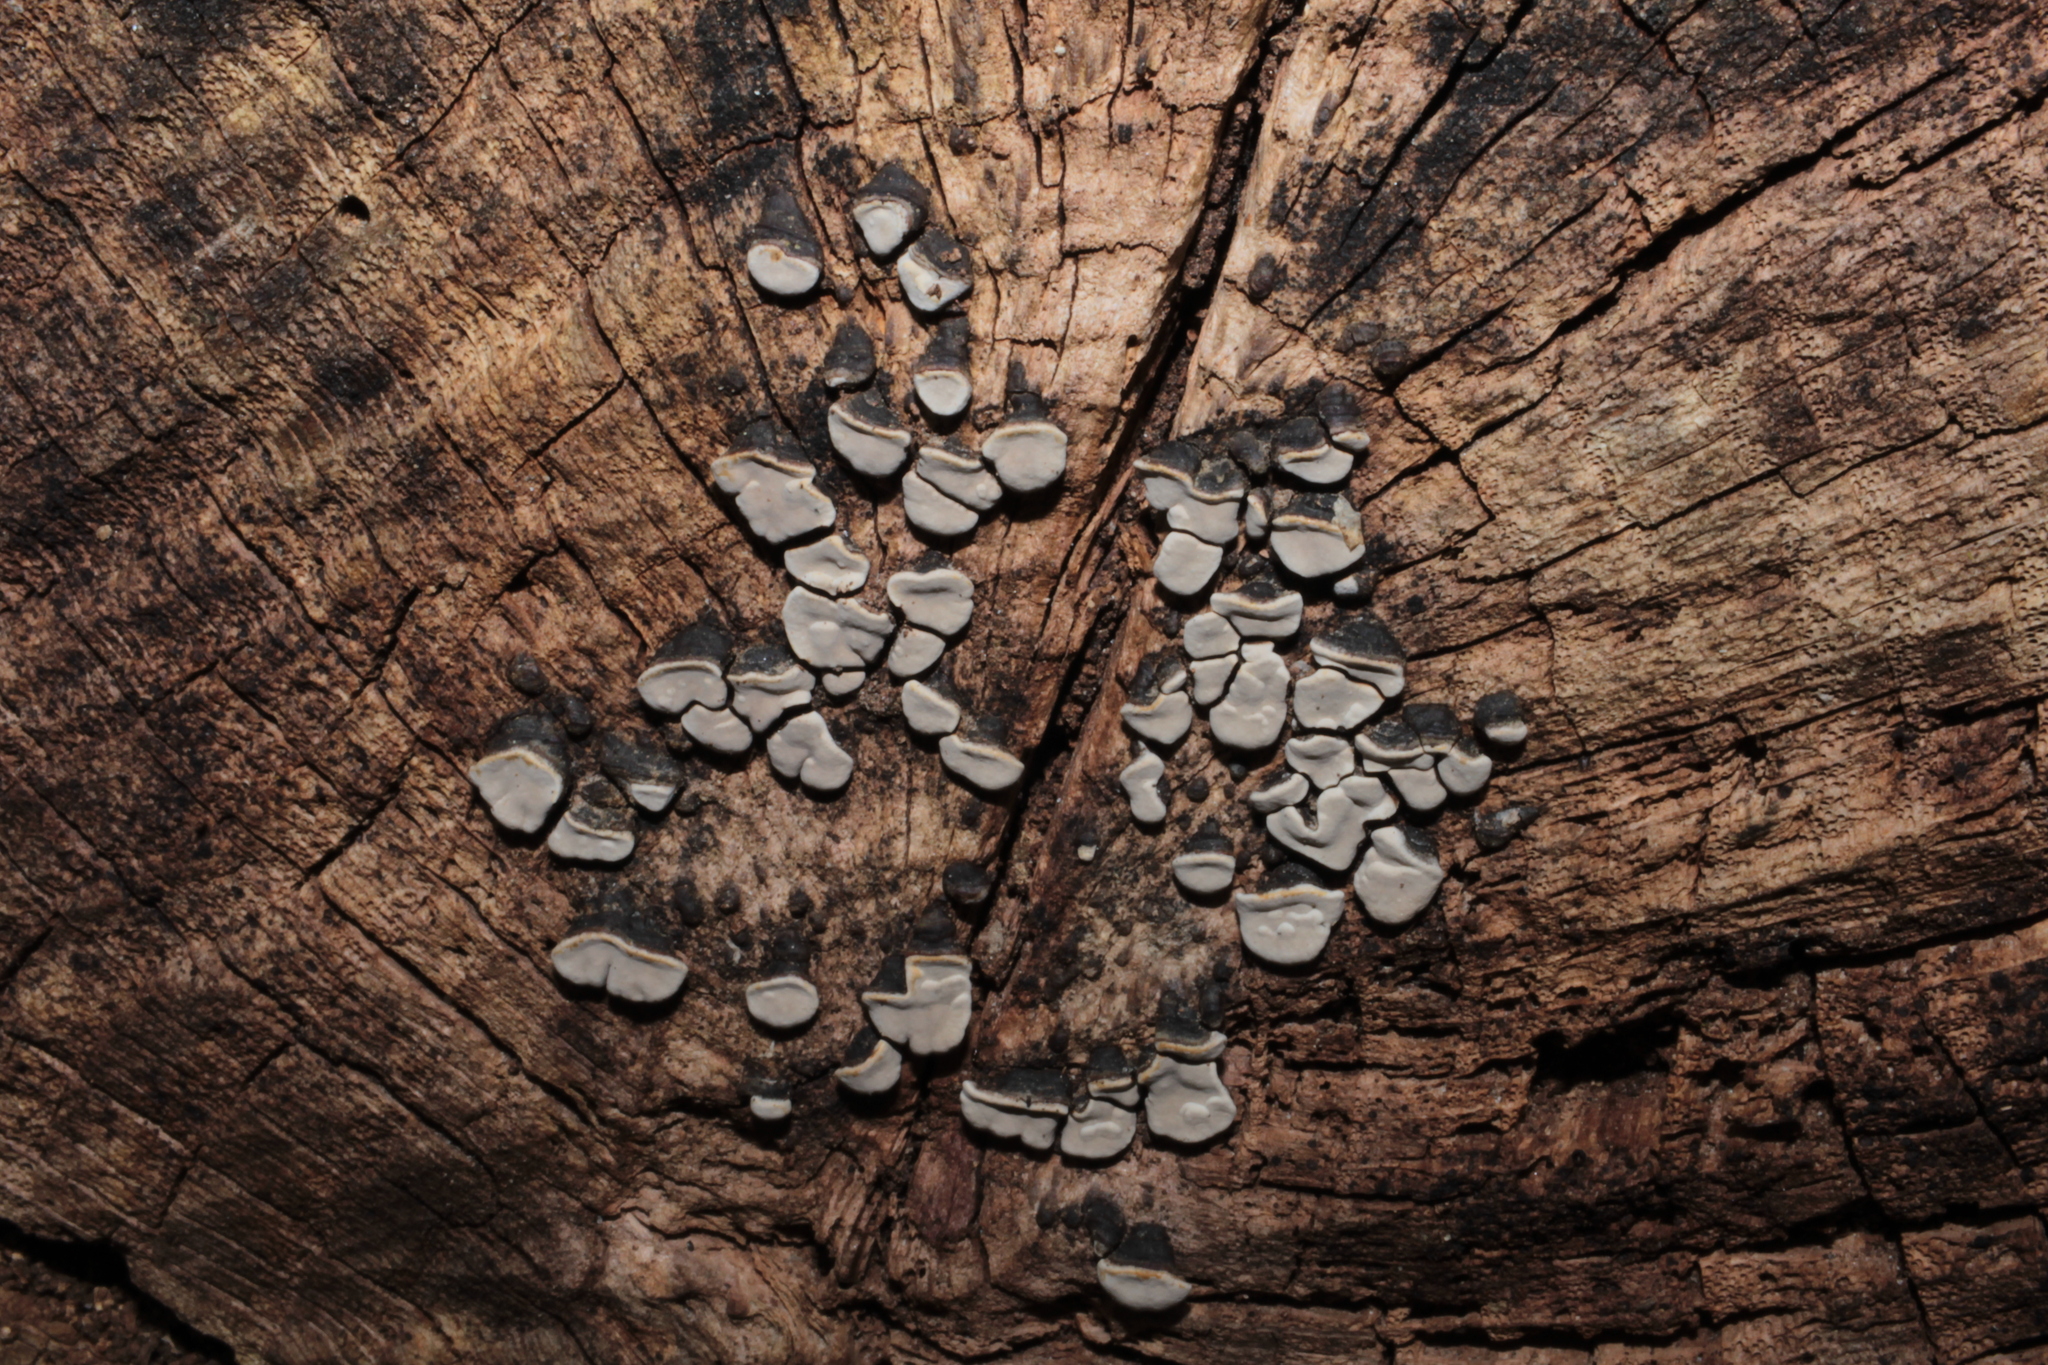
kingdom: Fungi
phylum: Basidiomycota
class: Agaricomycetes
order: Russulales
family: Stereaceae
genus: Xylobolus
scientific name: Xylobolus frustulatus
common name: Ceramic parchment
